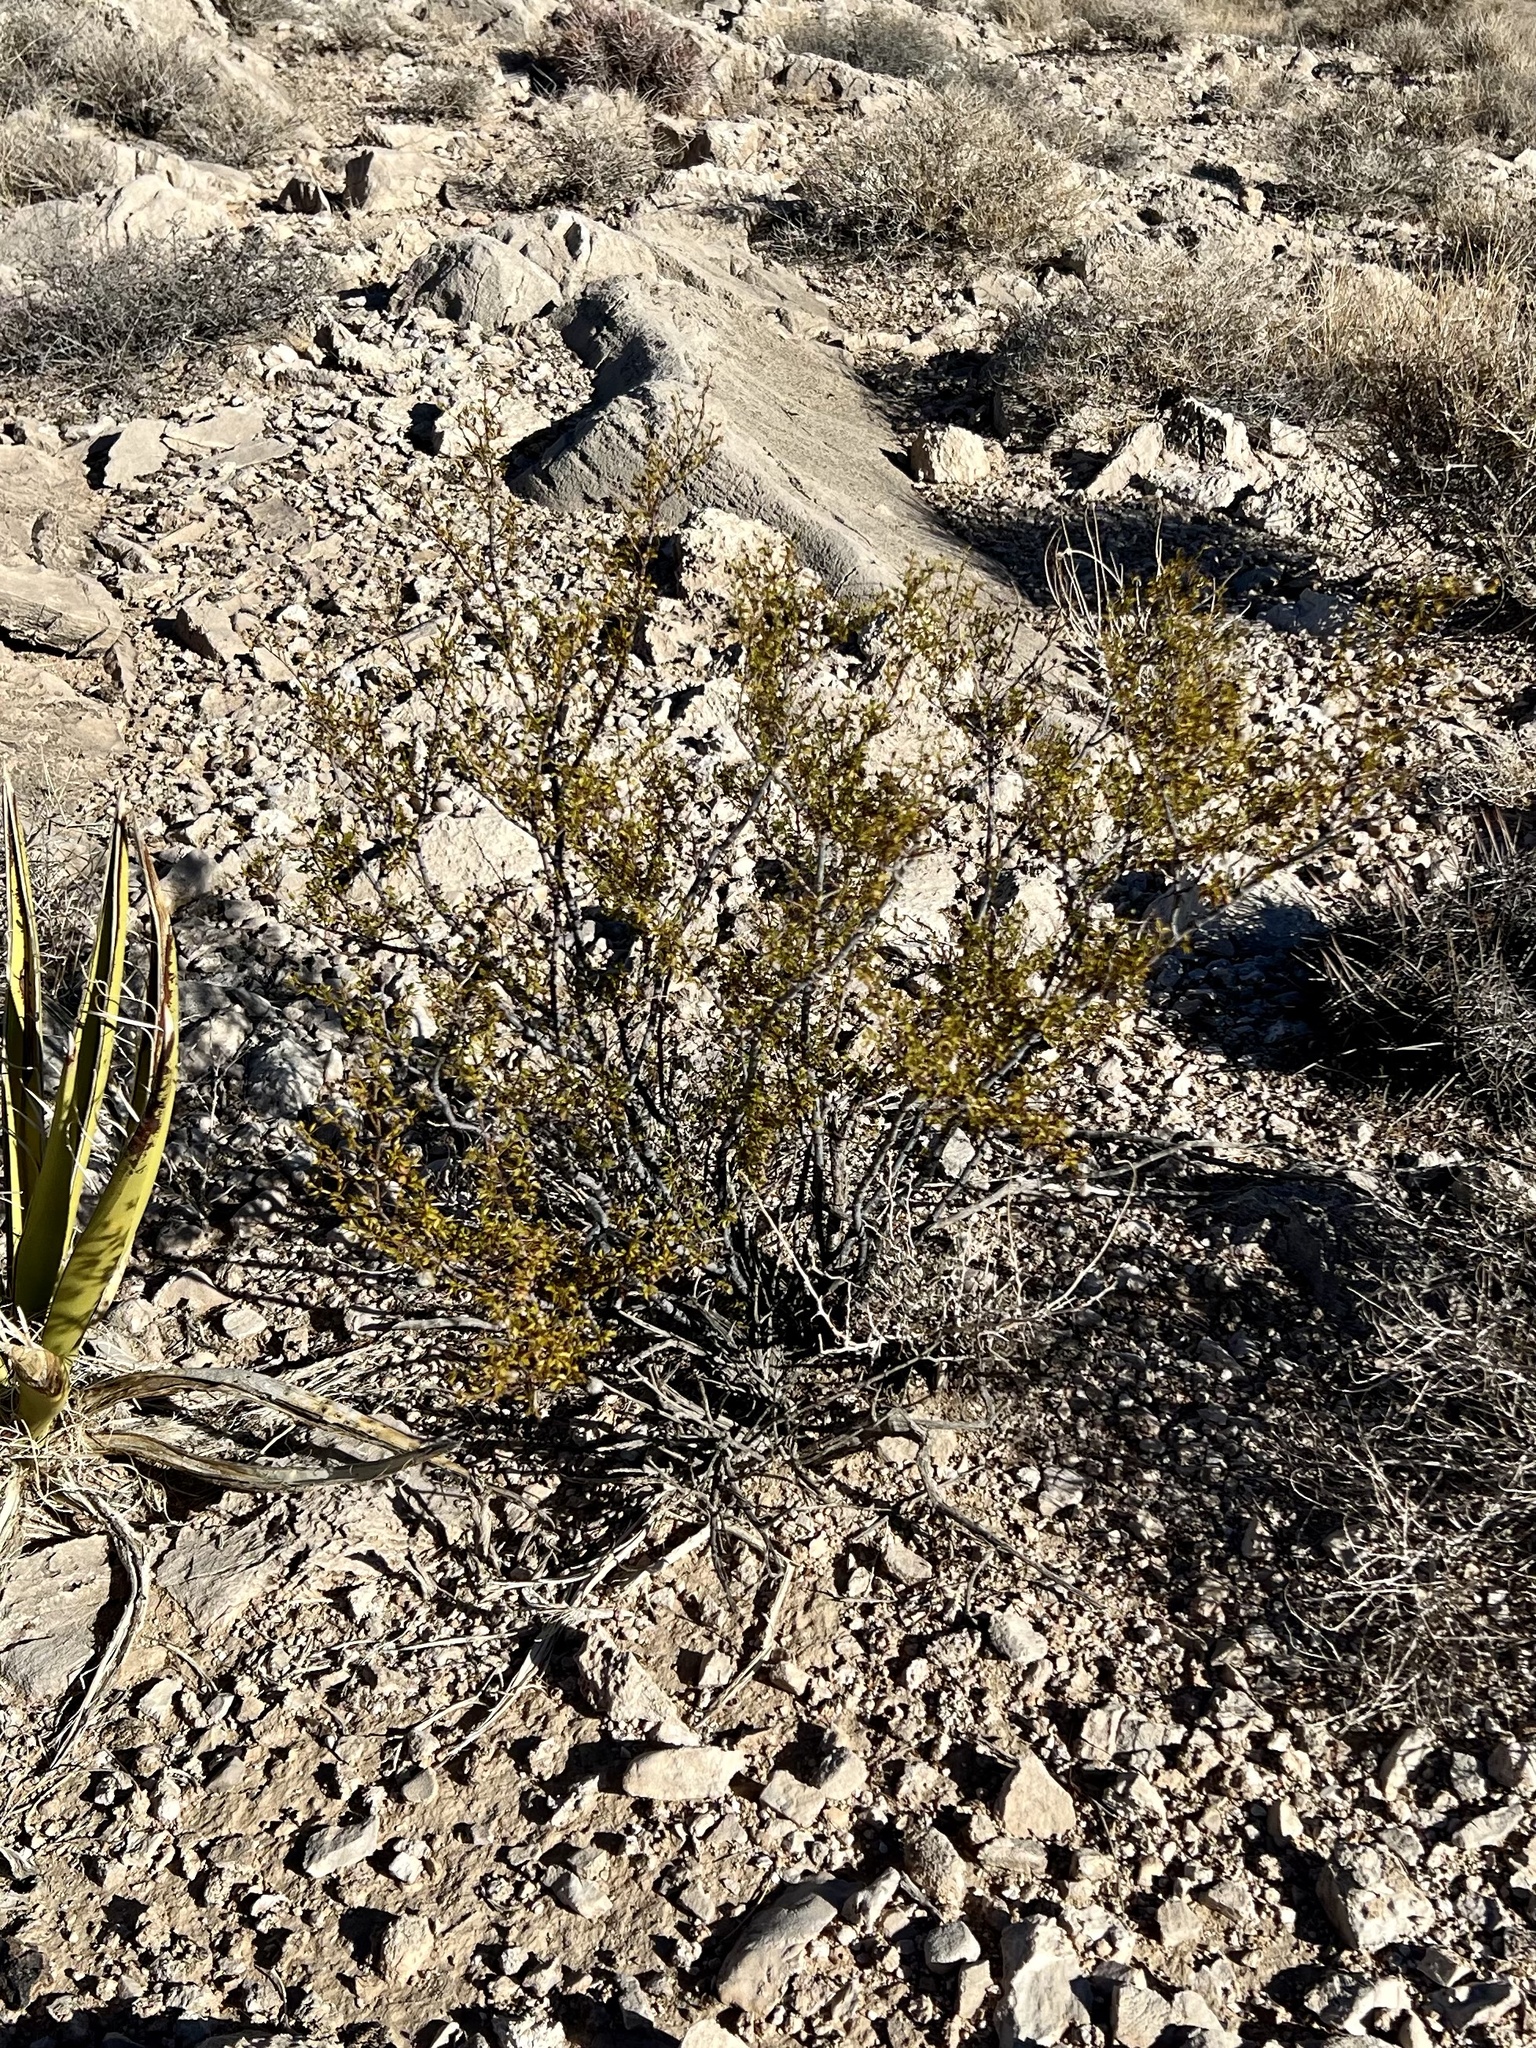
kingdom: Plantae
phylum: Tracheophyta
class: Magnoliopsida
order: Zygophyllales
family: Zygophyllaceae
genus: Larrea
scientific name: Larrea tridentata
